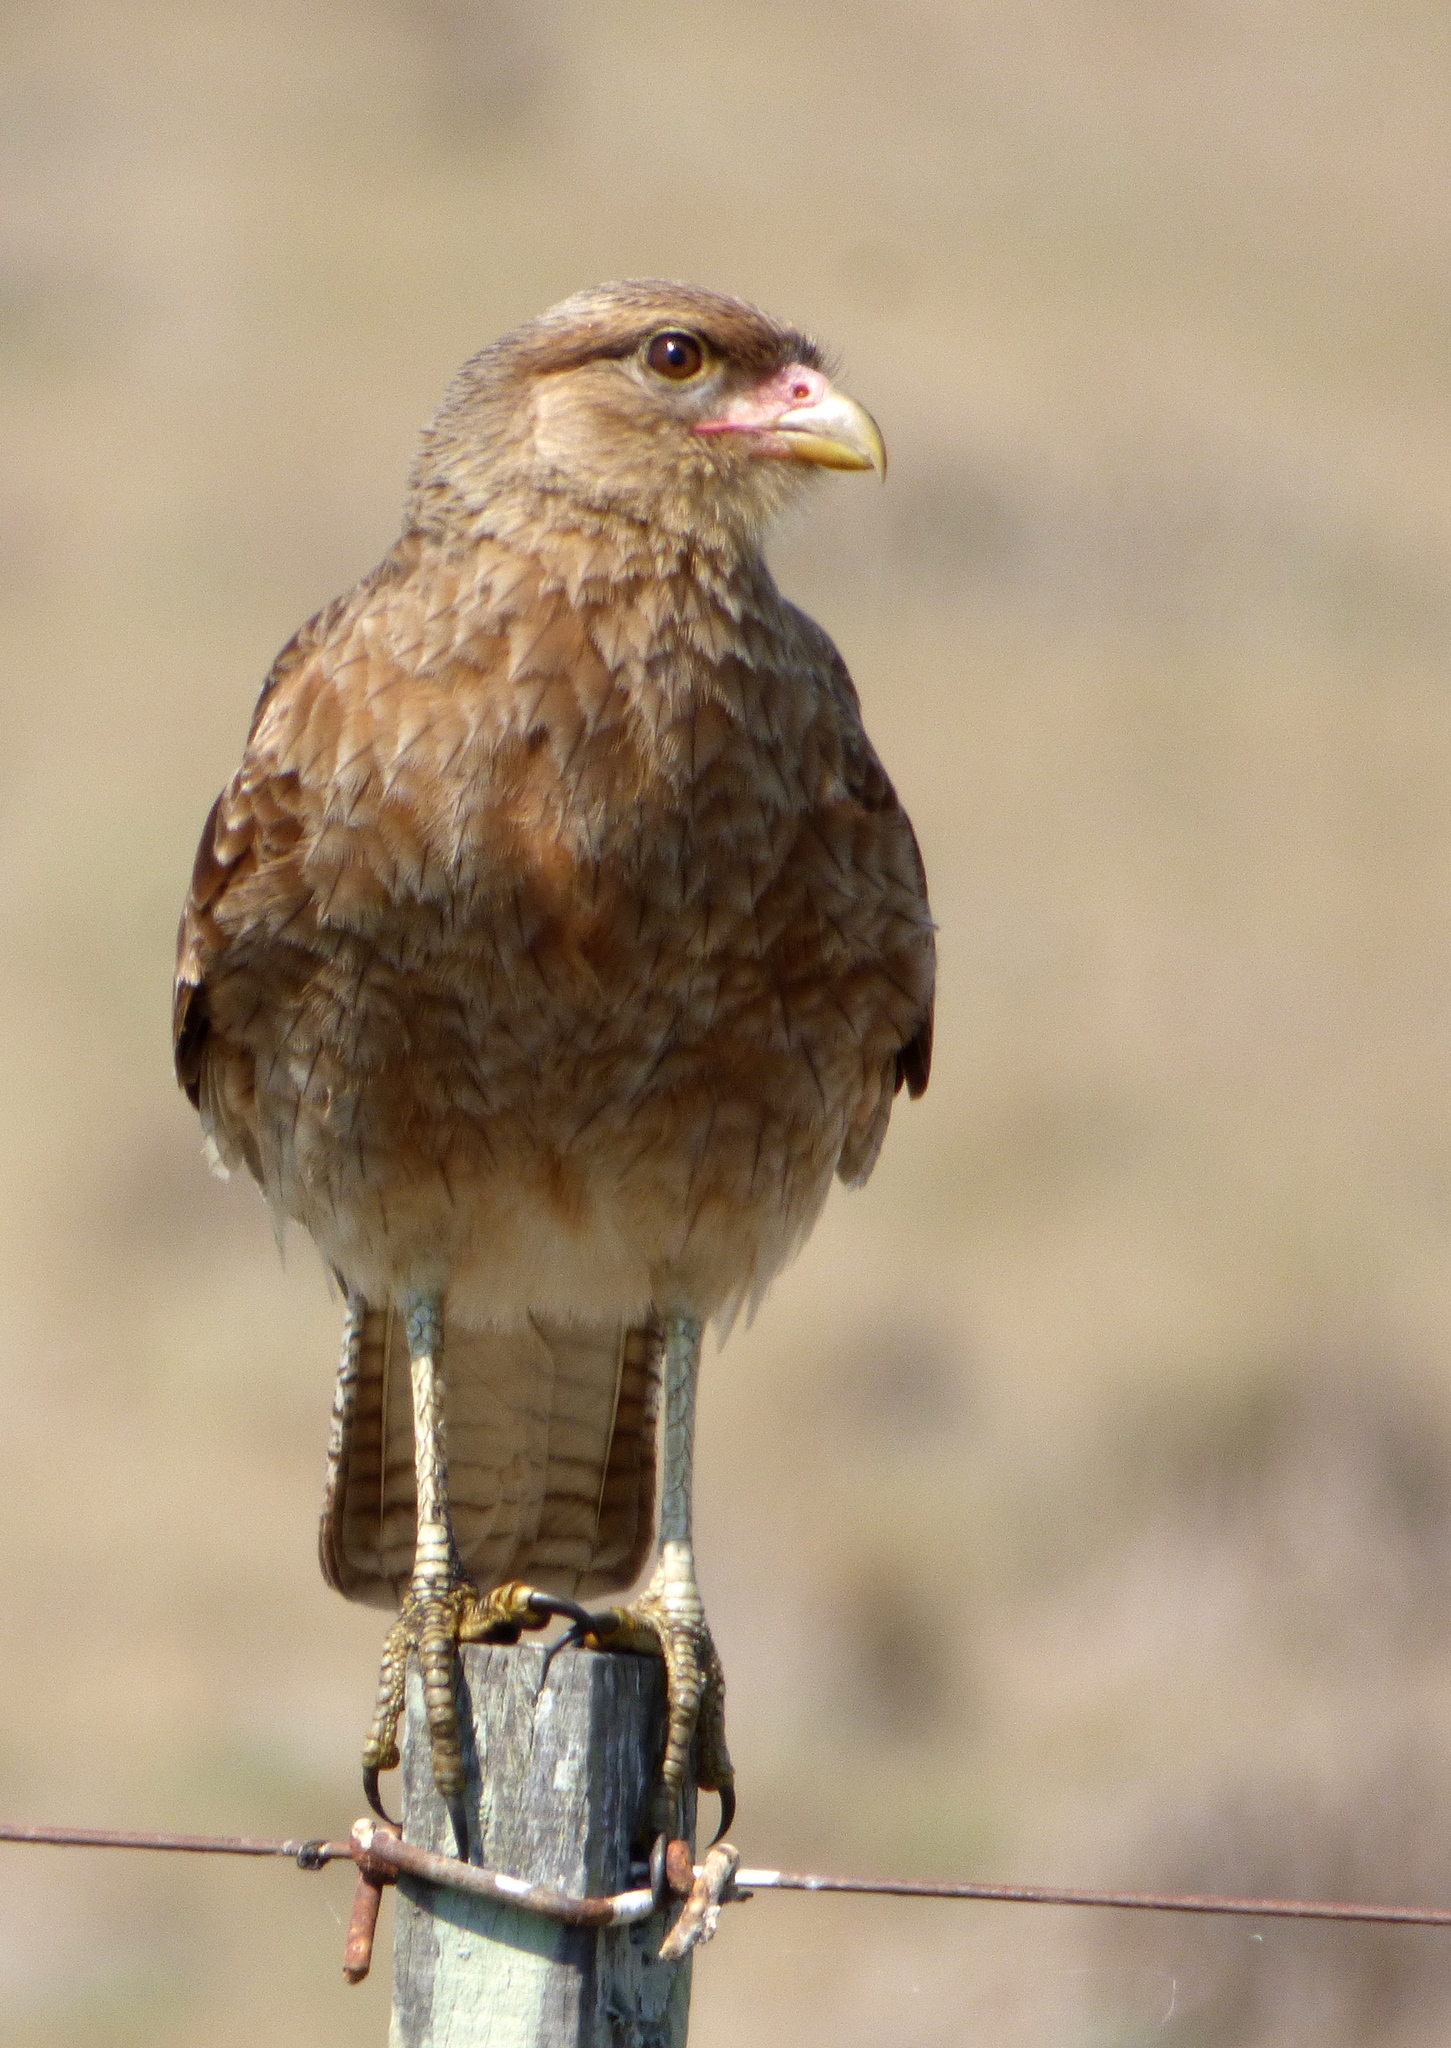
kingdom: Animalia
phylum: Chordata
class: Aves
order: Falconiformes
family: Falconidae
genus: Daptrius
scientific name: Daptrius
